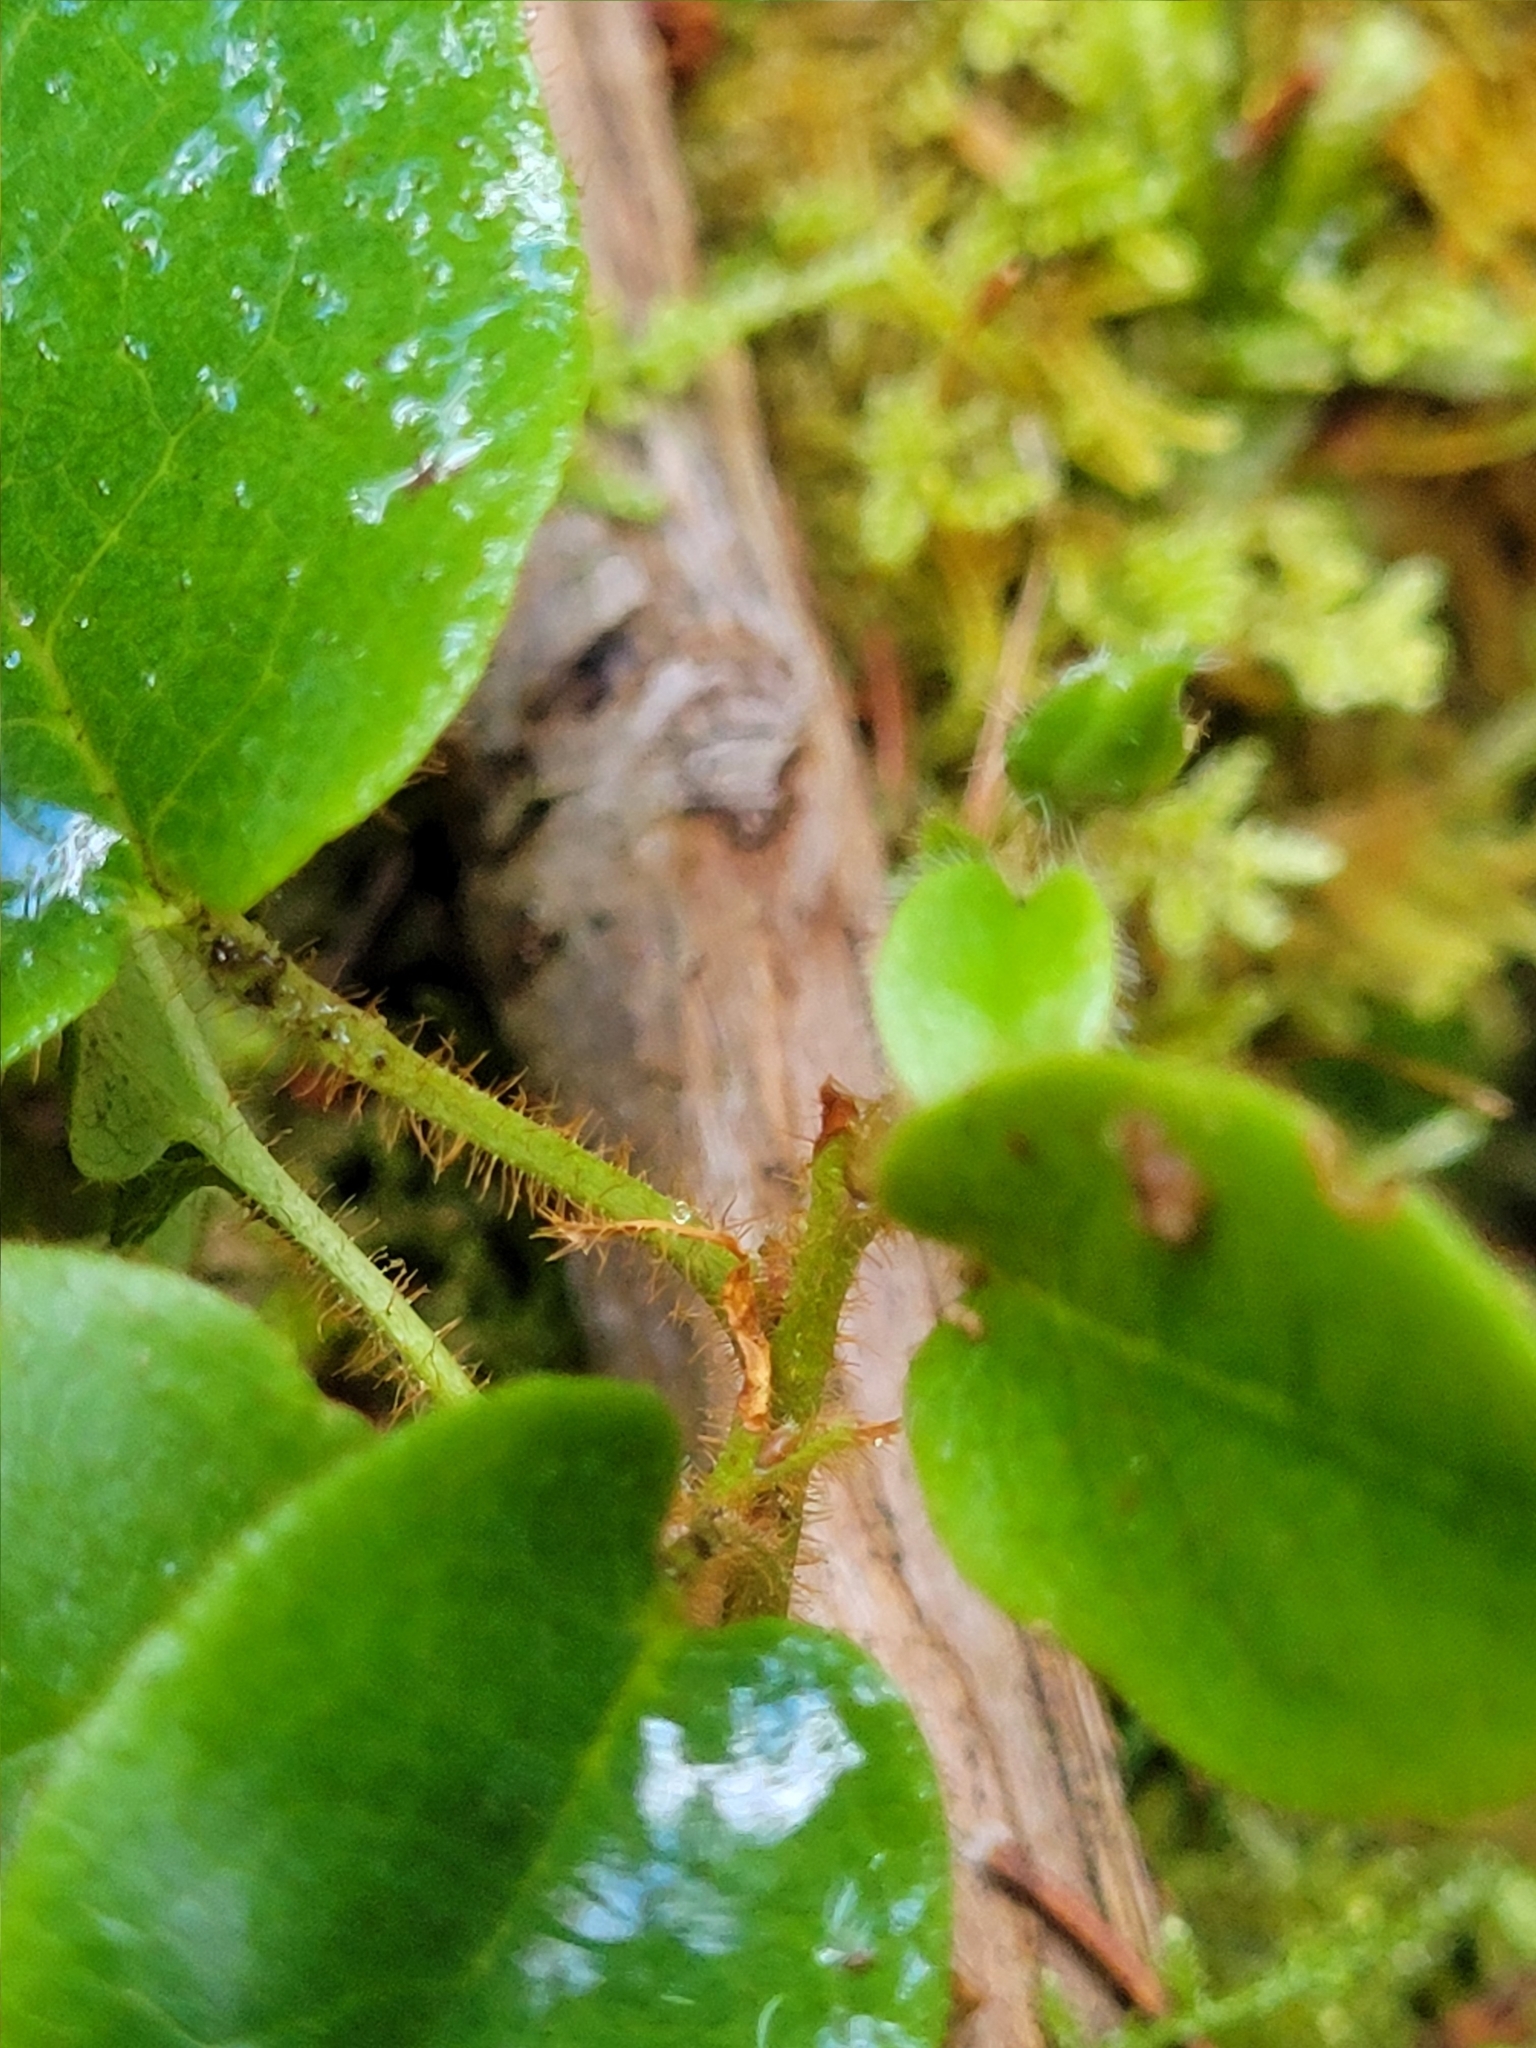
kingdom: Plantae
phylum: Tracheophyta
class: Magnoliopsida
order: Ericales
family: Ericaceae
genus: Epigaea
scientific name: Epigaea repens
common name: Gravelroot
